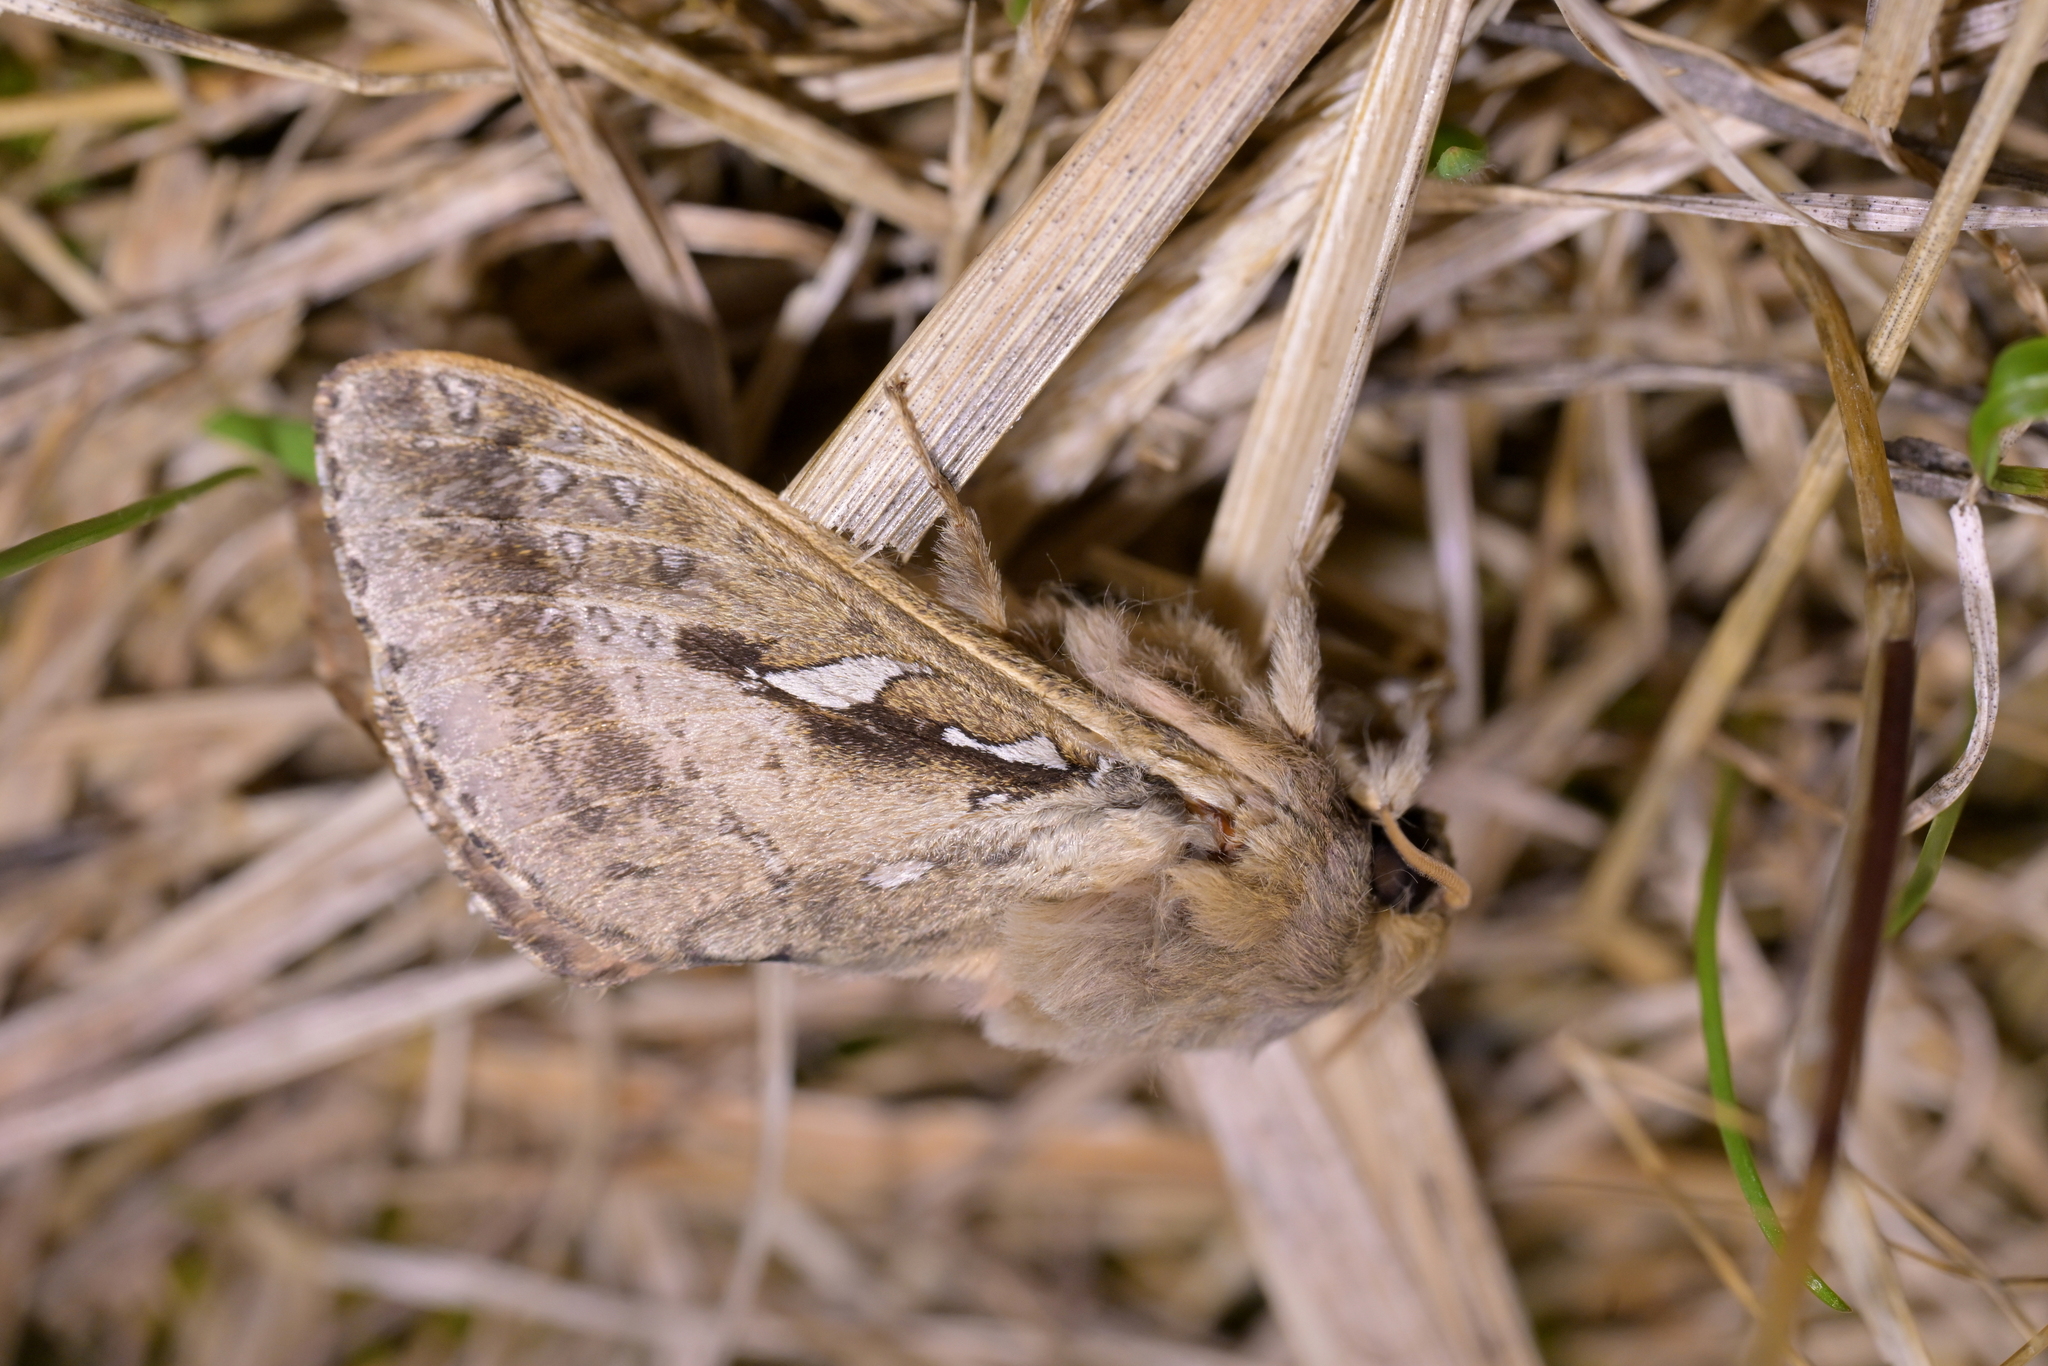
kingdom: Animalia
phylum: Arthropoda
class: Insecta
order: Lepidoptera
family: Hepialidae
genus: Wiseana
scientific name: Wiseana signata
